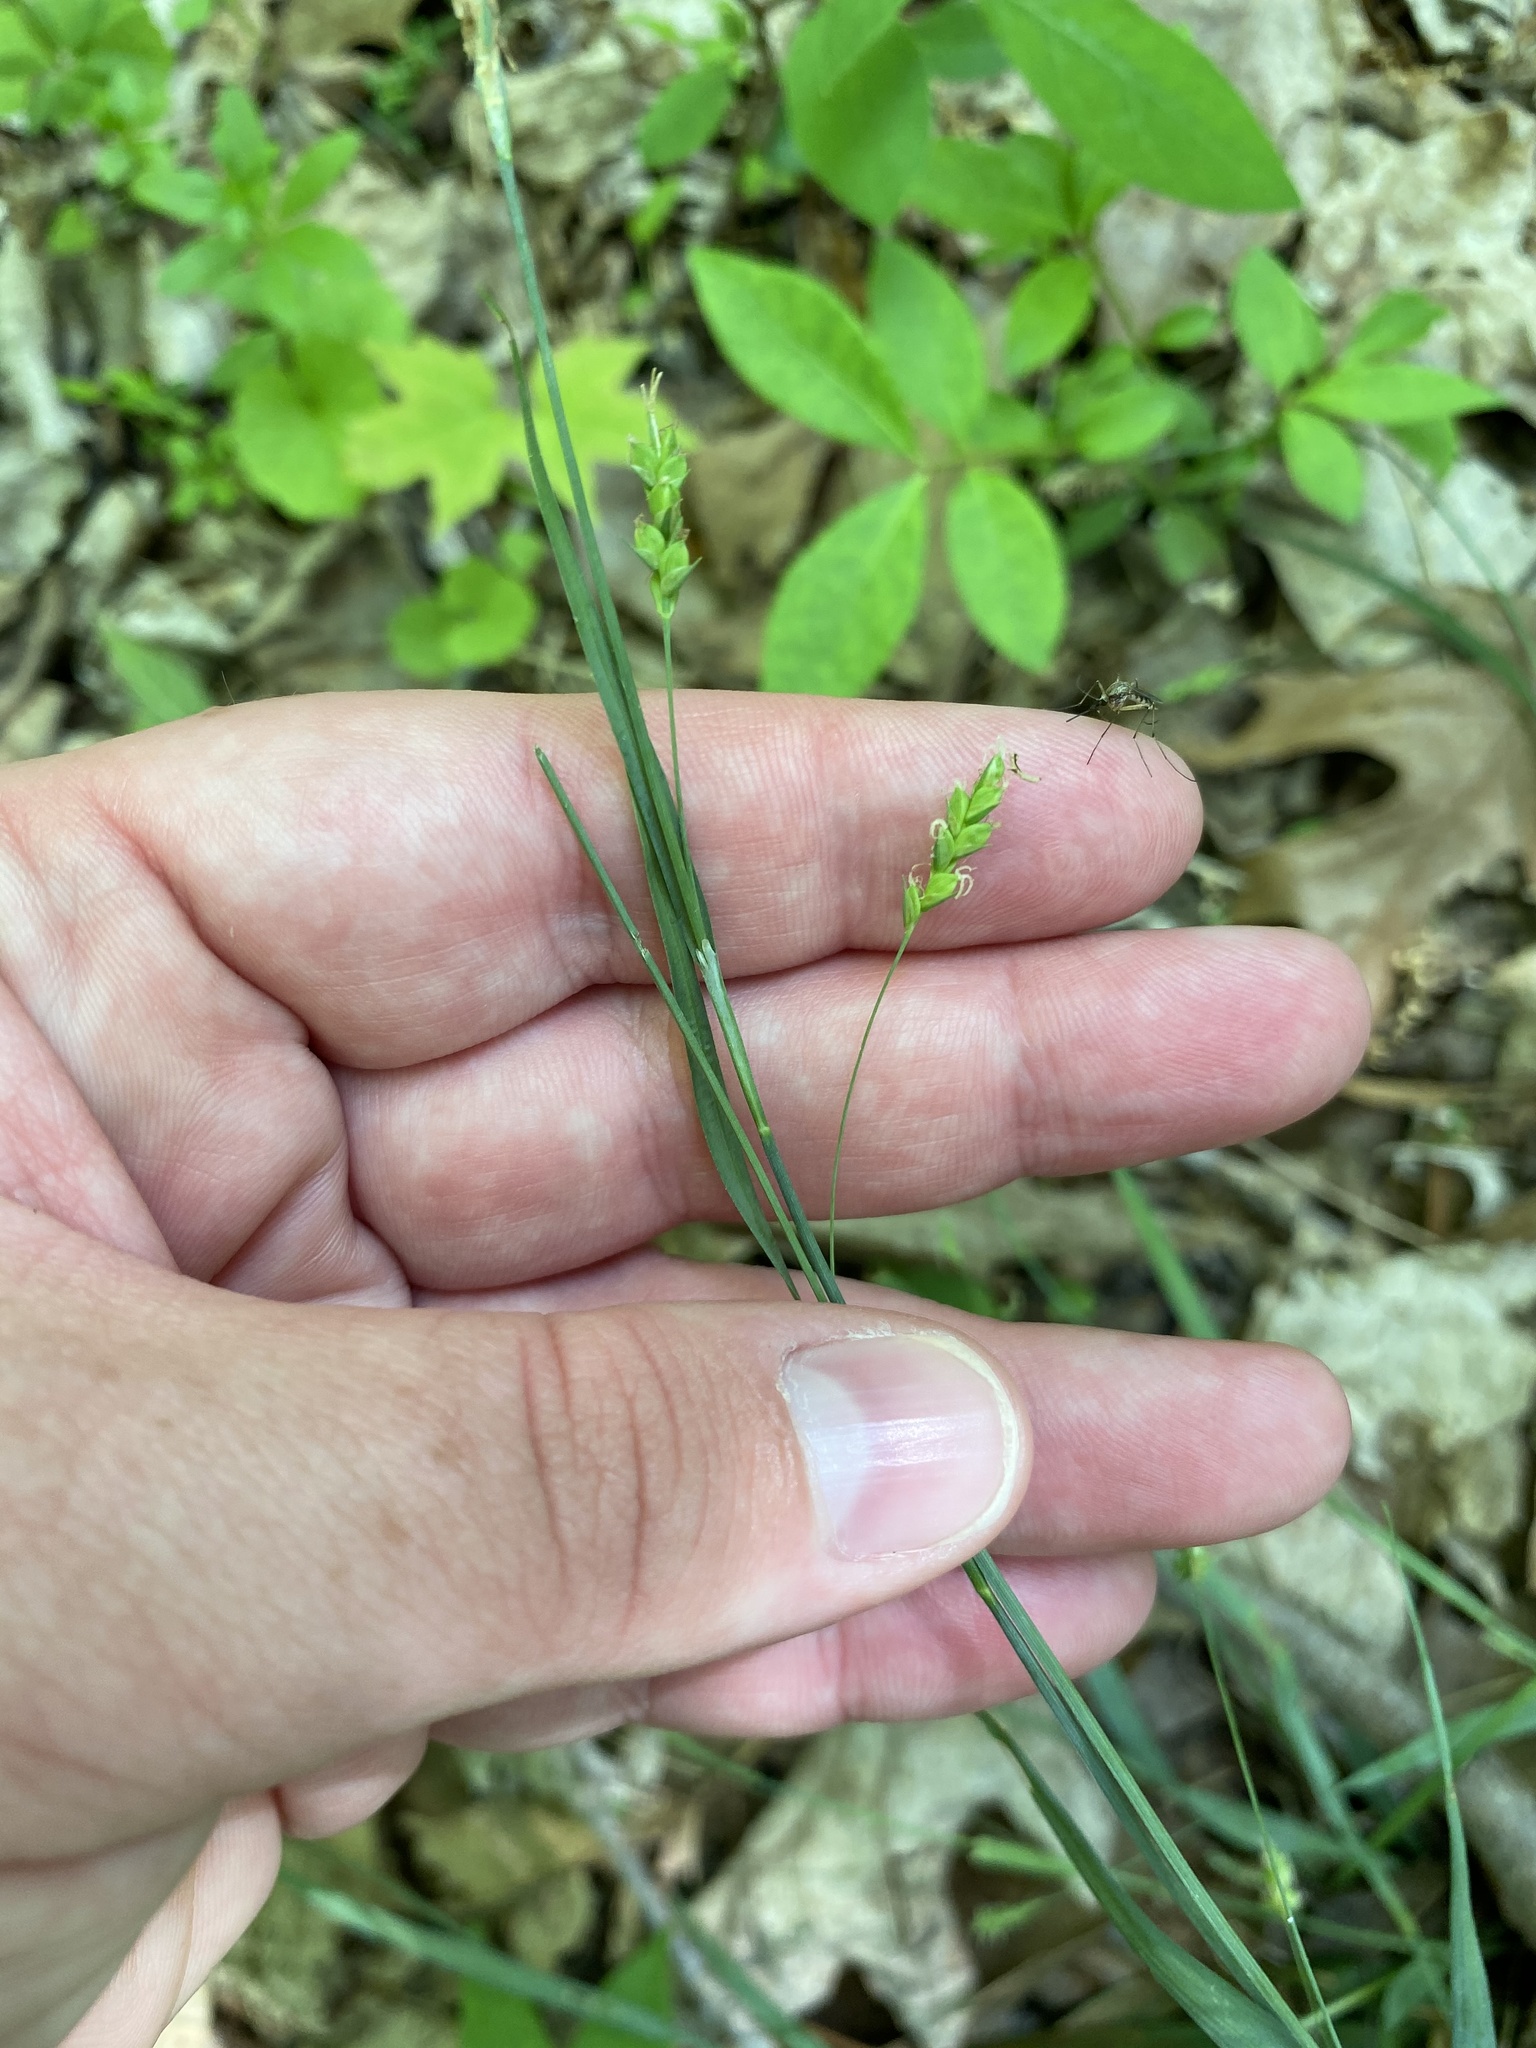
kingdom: Plantae
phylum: Tracheophyta
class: Liliopsida
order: Poales
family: Cyperaceae
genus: Carex
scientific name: Carex laxiculmis
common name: Spreading sedge
